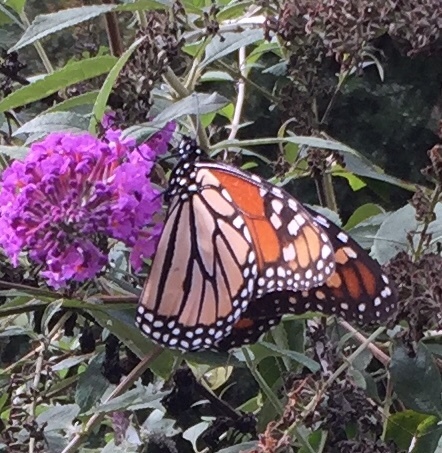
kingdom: Animalia
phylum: Arthropoda
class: Insecta
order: Lepidoptera
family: Nymphalidae
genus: Danaus
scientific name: Danaus plexippus
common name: Monarch
